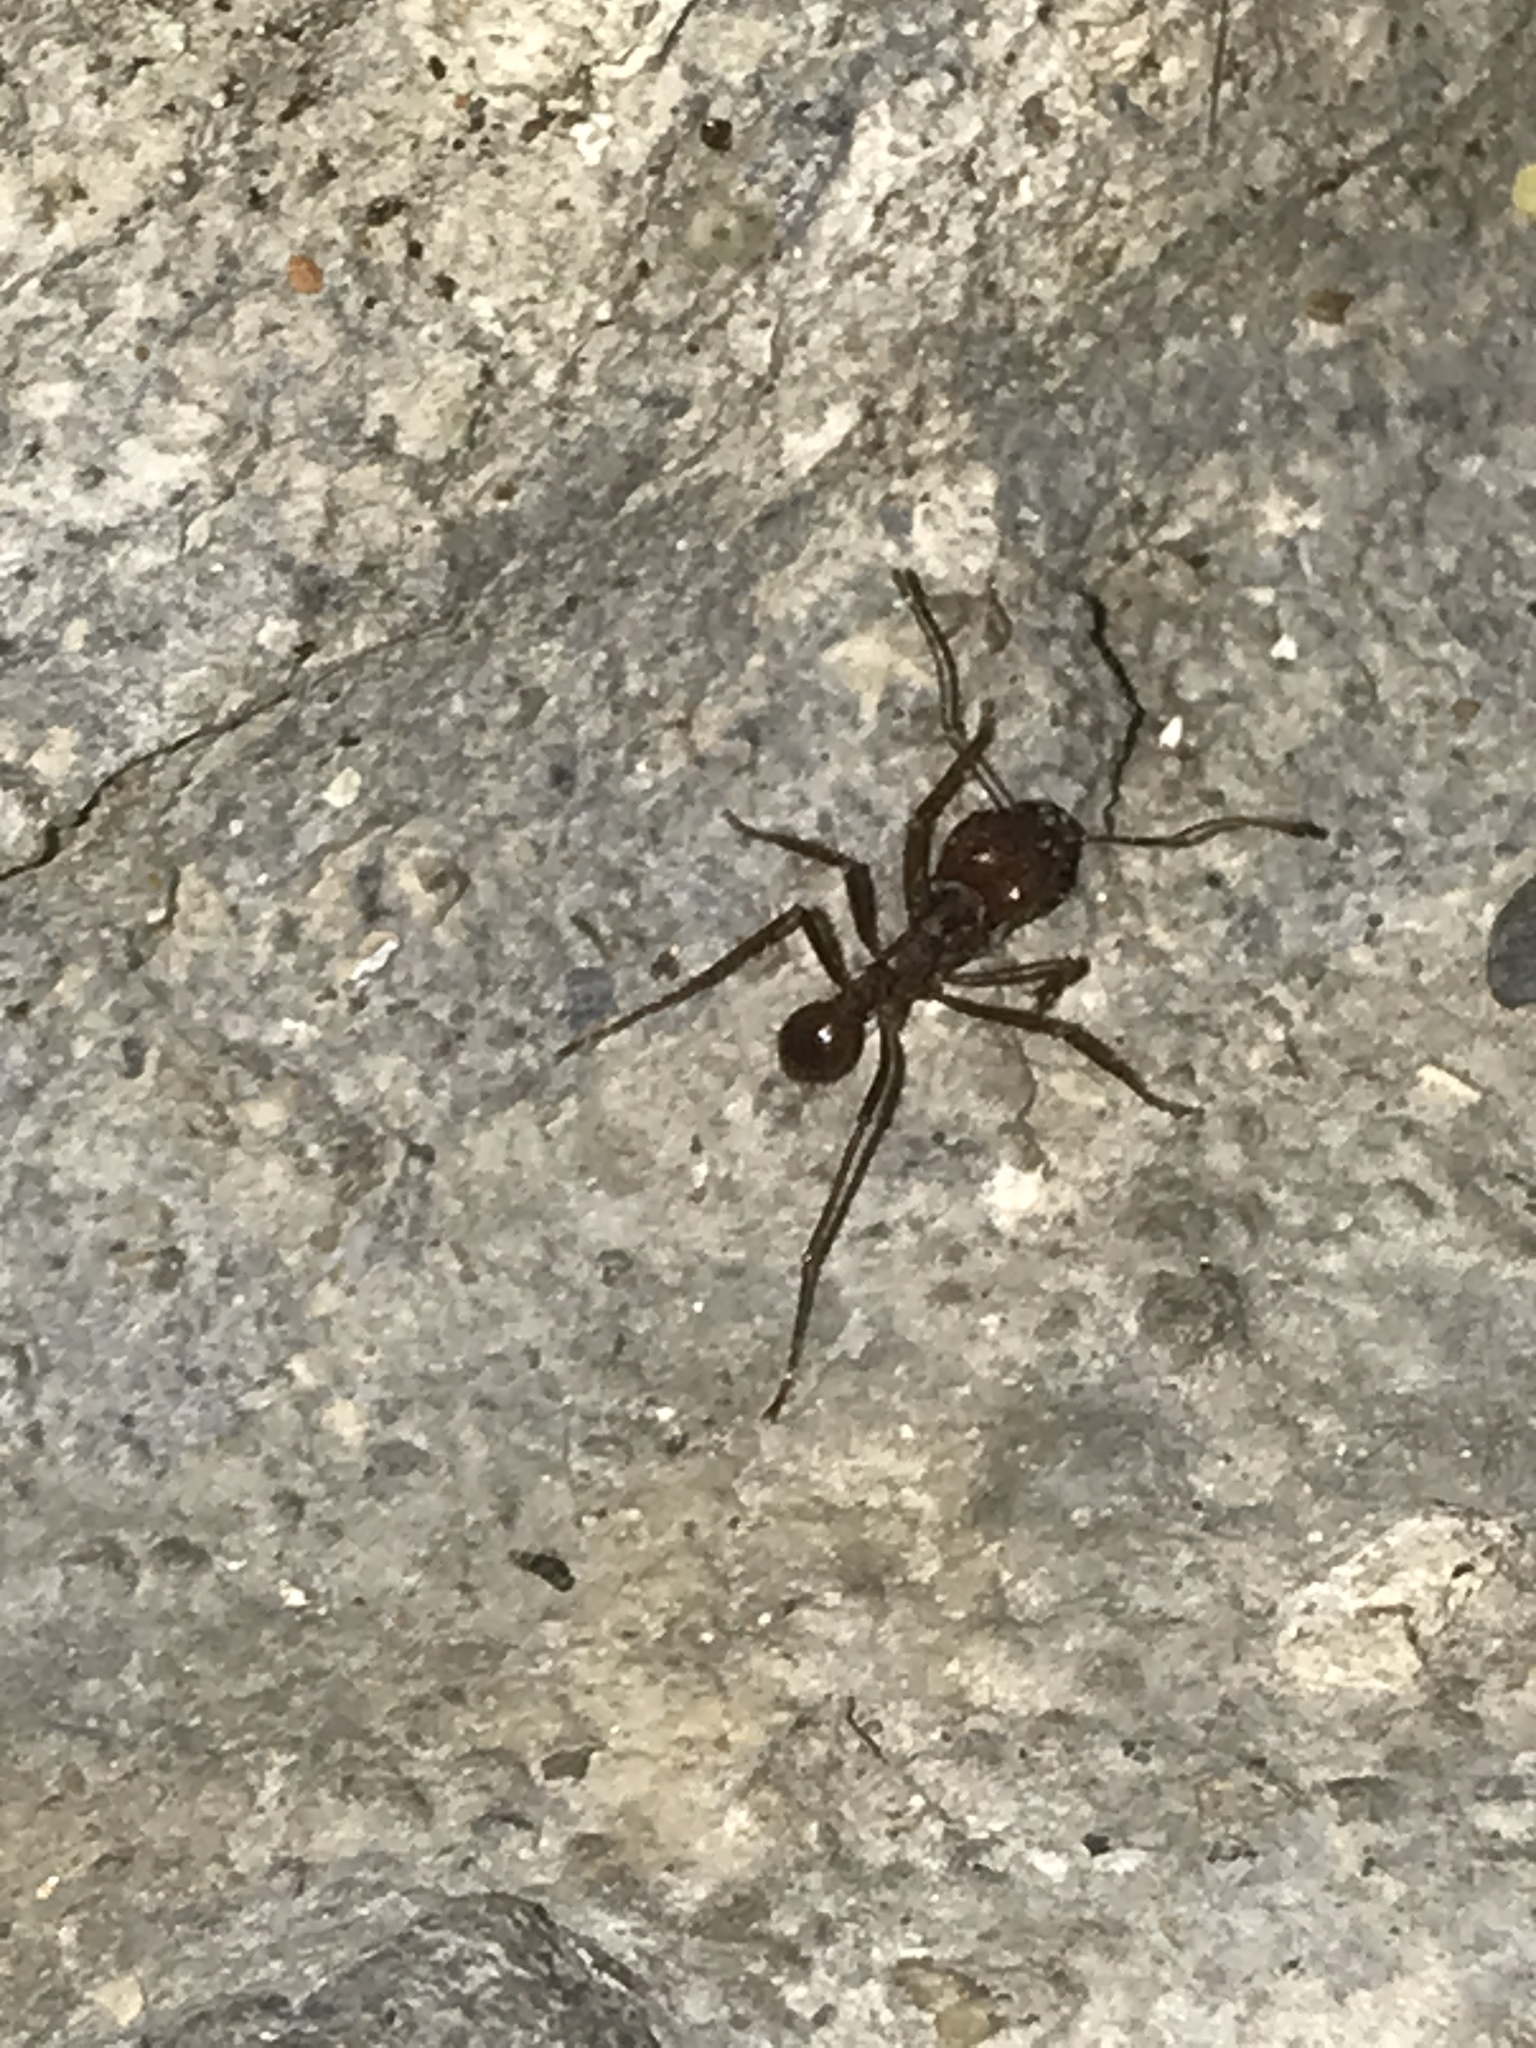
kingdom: Animalia
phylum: Arthropoda
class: Insecta
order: Hymenoptera
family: Formicidae
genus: Atta
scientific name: Atta mexicana
